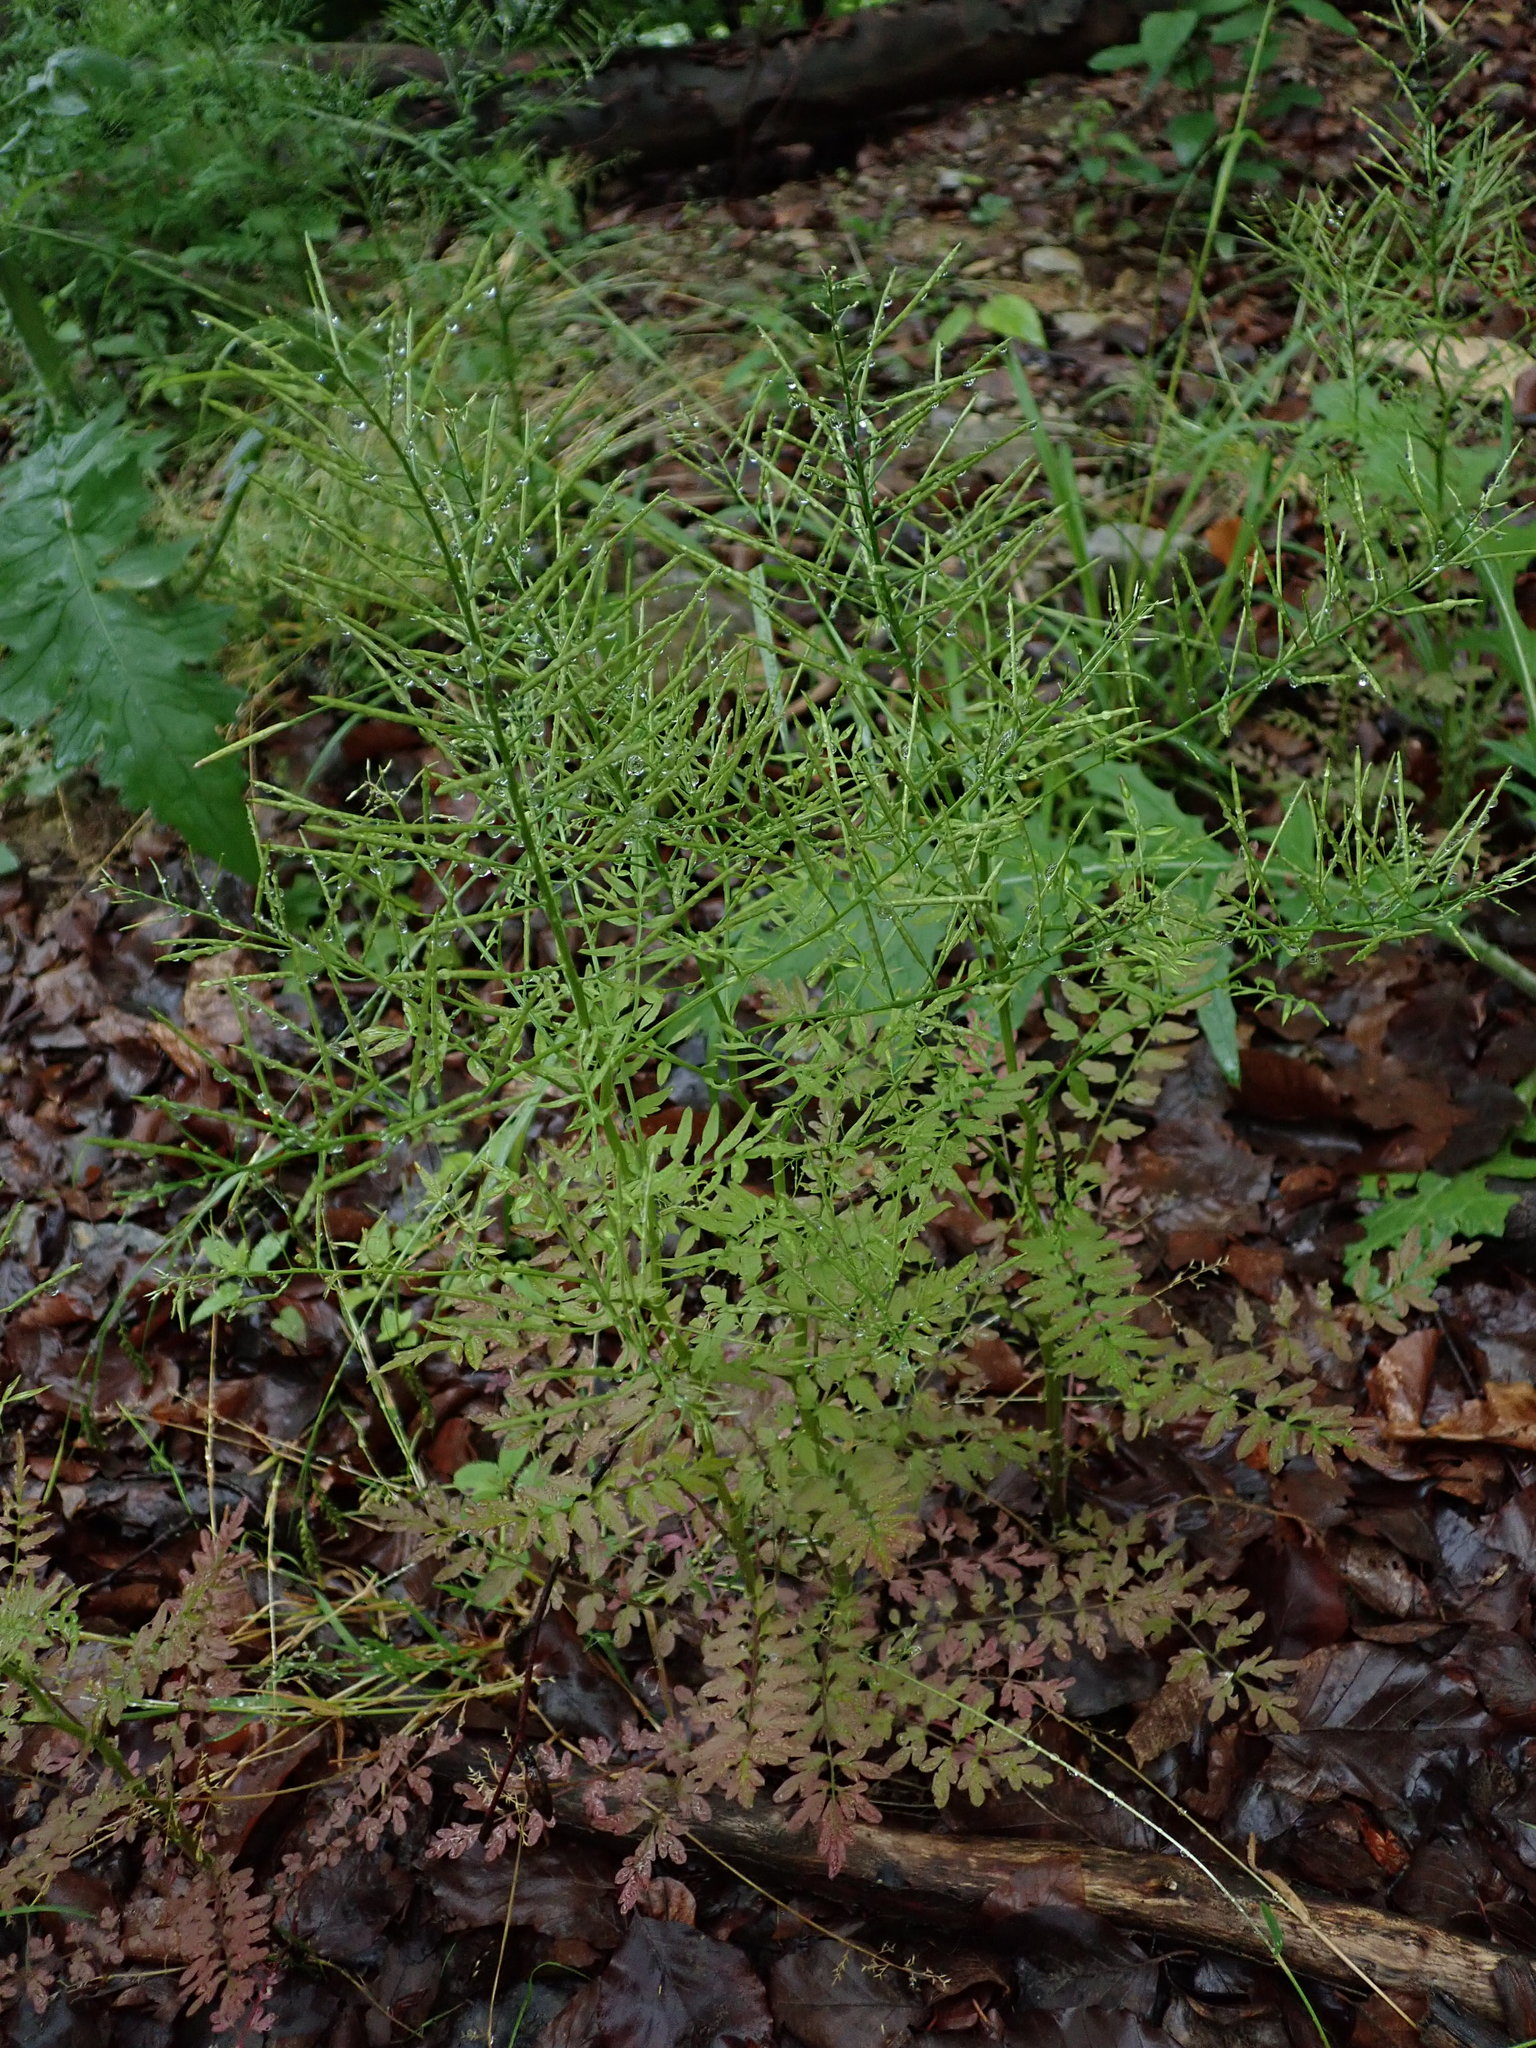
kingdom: Plantae
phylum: Tracheophyta
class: Magnoliopsida
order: Brassicales
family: Brassicaceae
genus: Cardamine
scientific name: Cardamine impatiens
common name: Narrow-leaved bitter-cress
